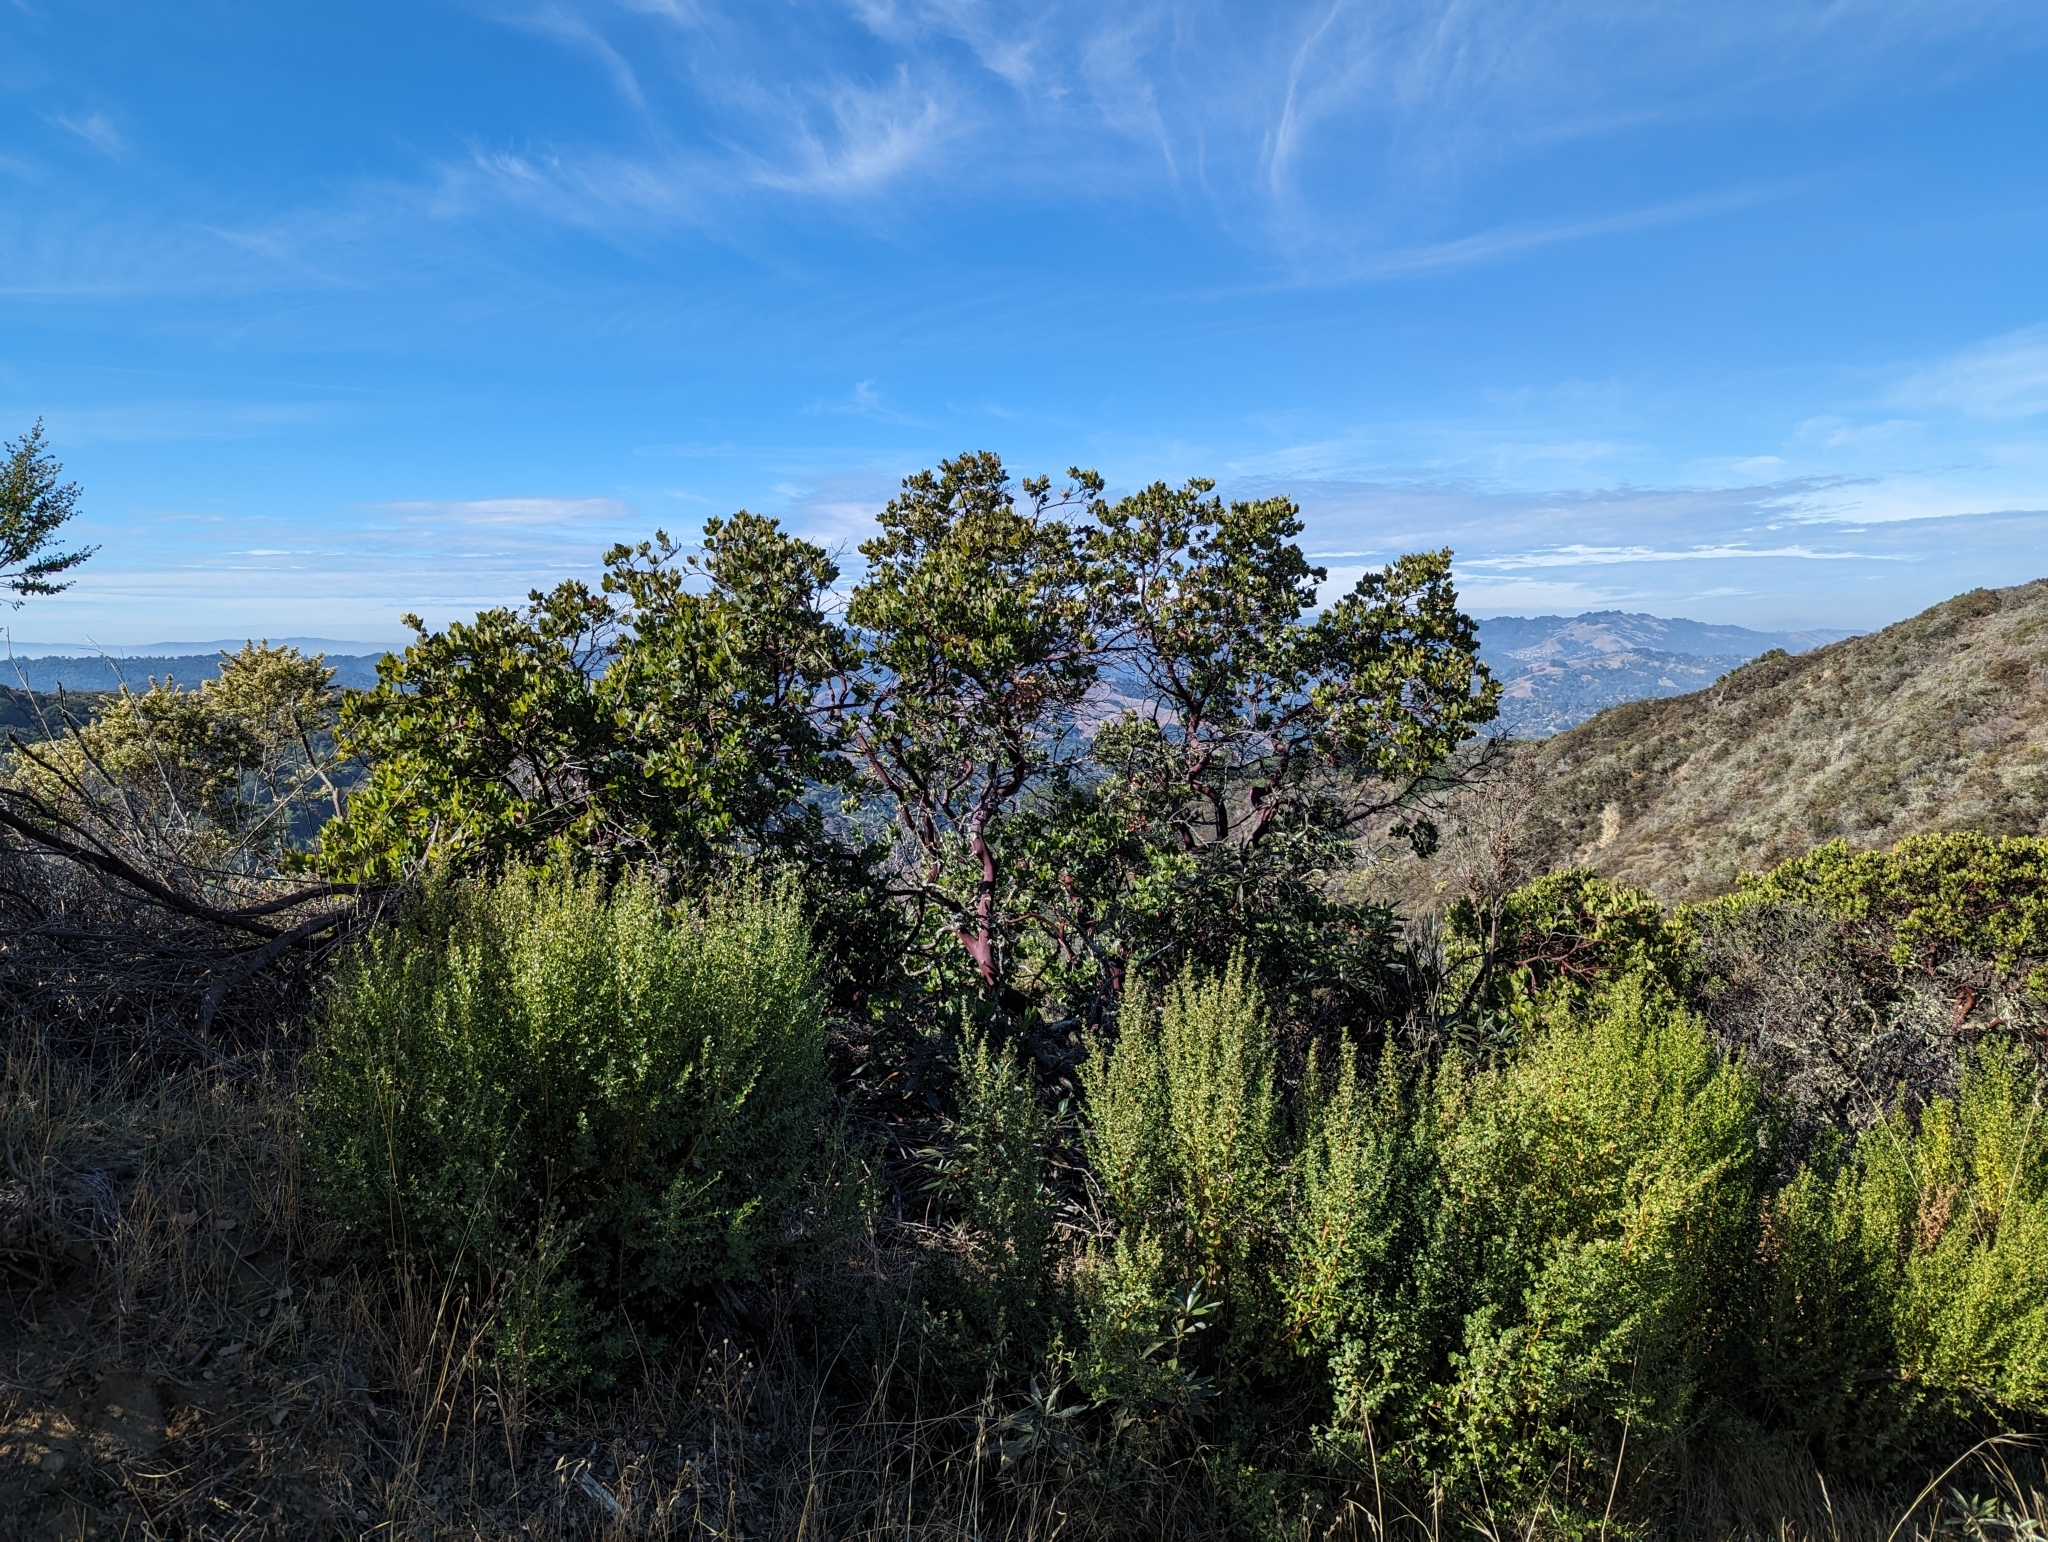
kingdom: Plantae
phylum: Tracheophyta
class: Magnoliopsida
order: Ericales
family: Ericaceae
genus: Arctostaphylos
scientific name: Arctostaphylos crustacea
